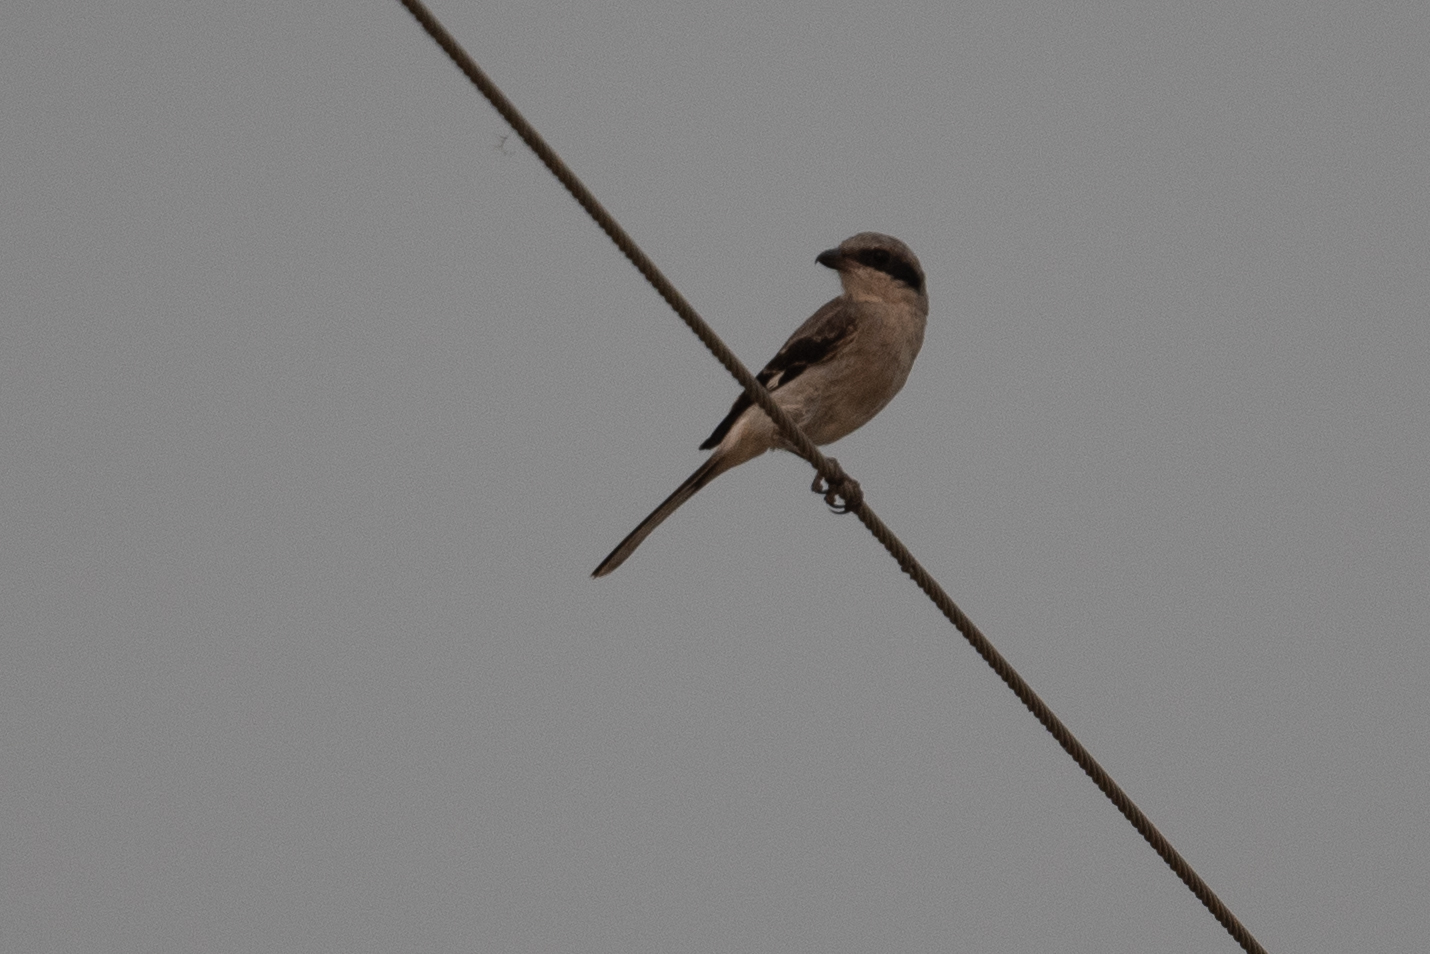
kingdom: Animalia
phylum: Chordata
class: Aves
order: Passeriformes
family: Laniidae
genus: Lanius
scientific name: Lanius ludovicianus
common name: Loggerhead shrike
